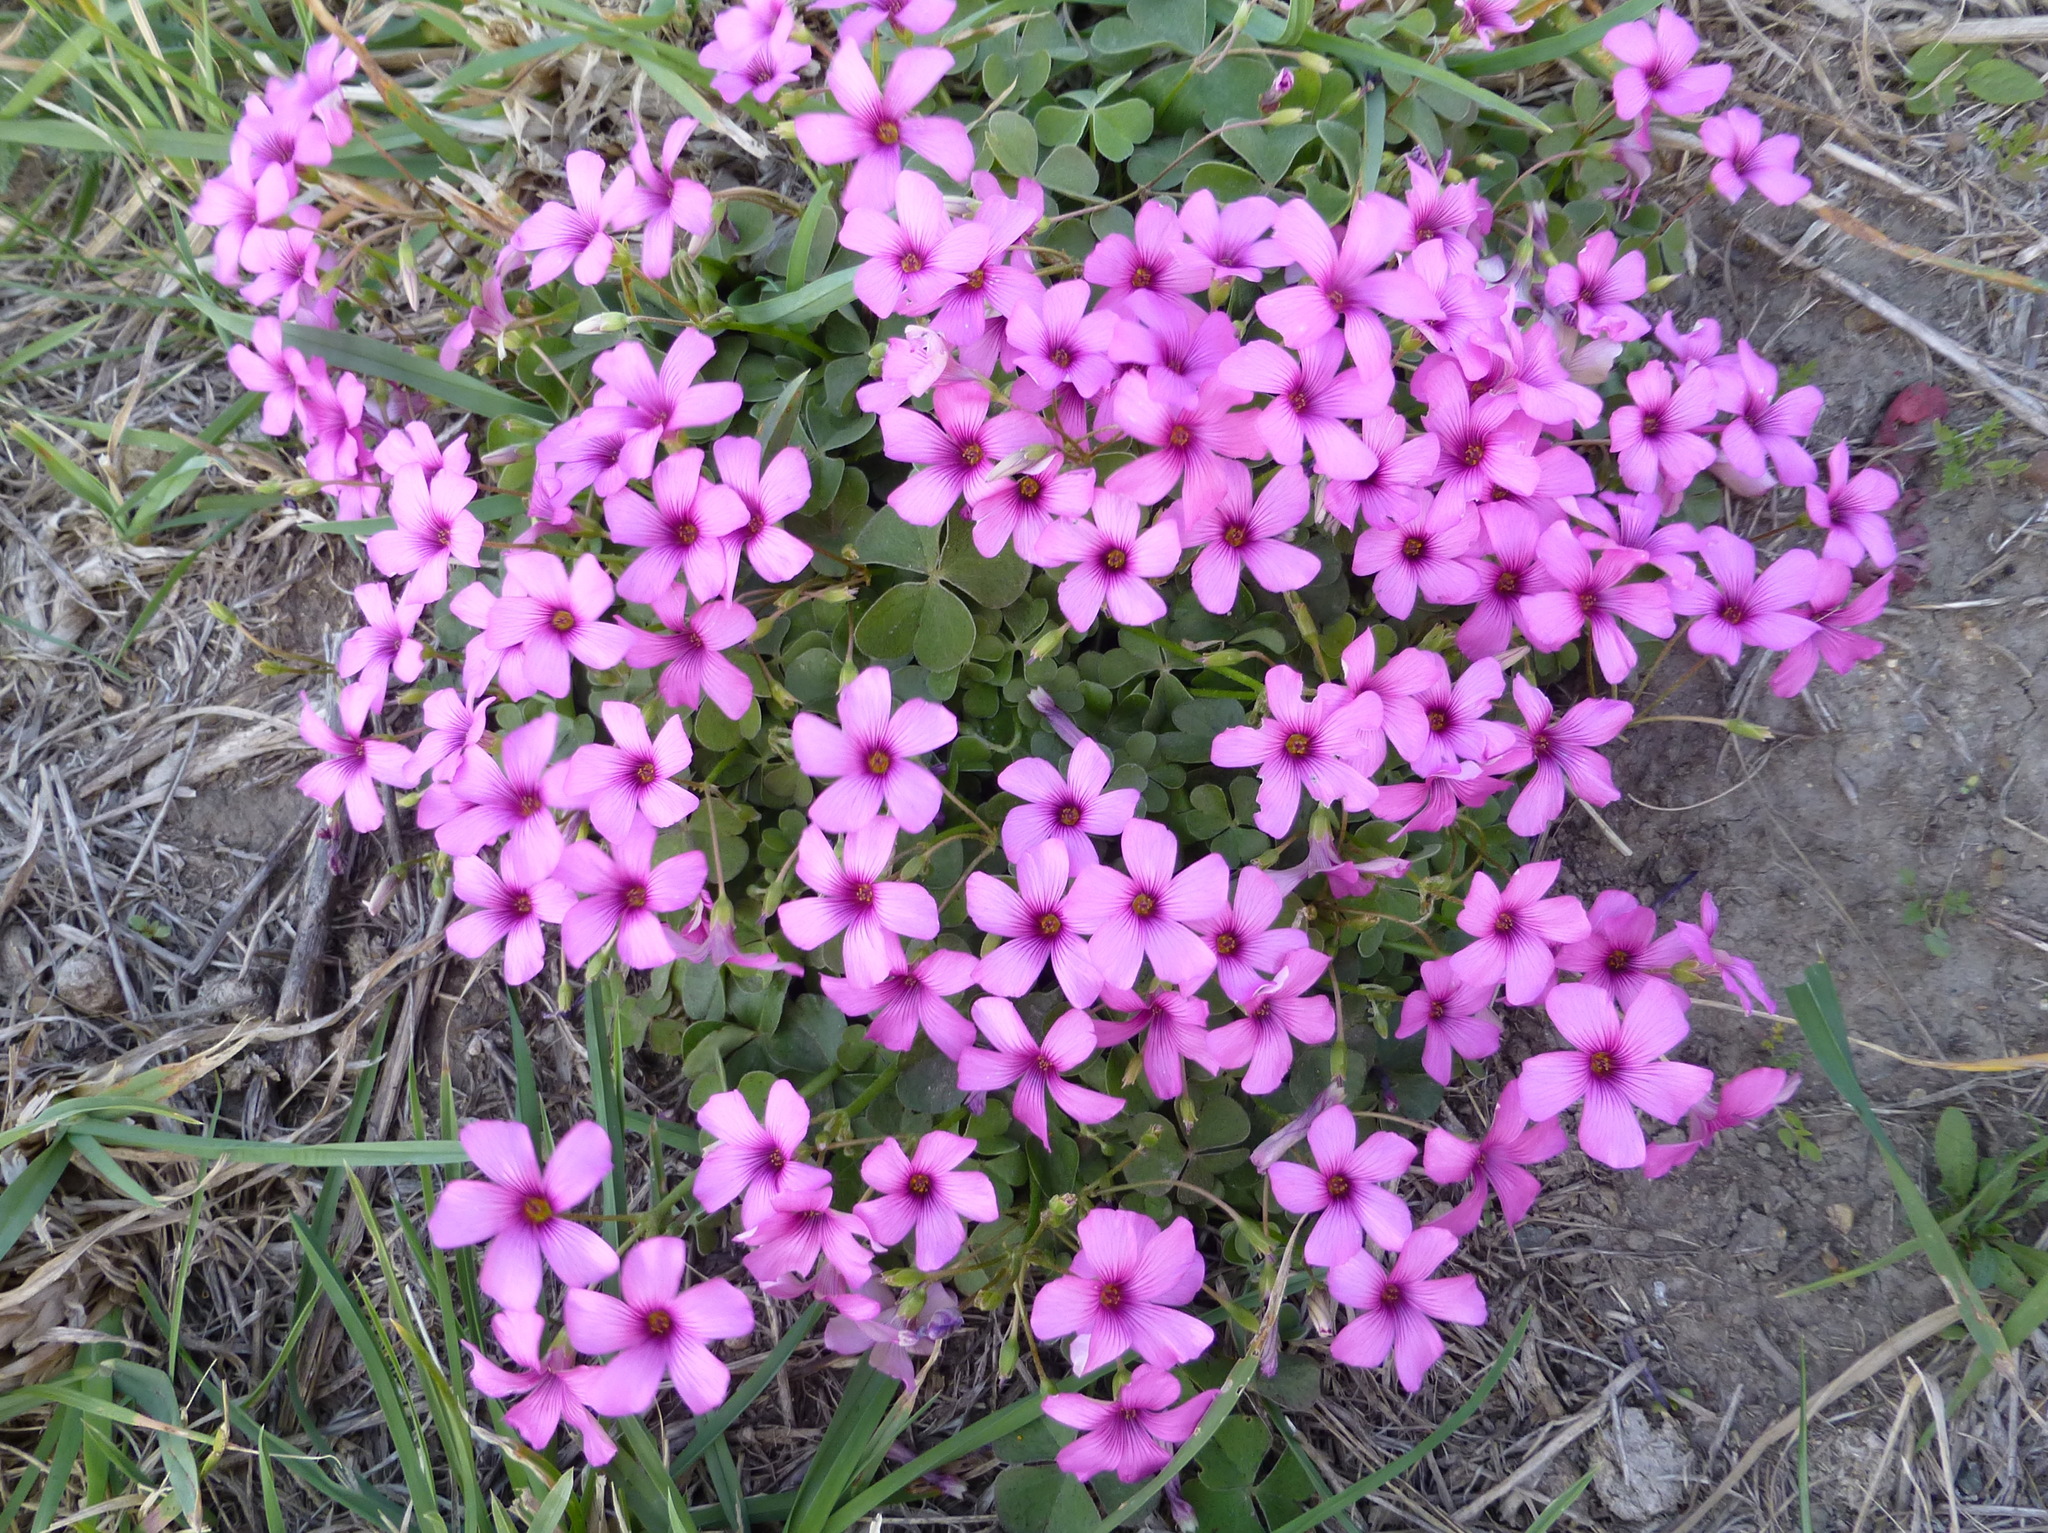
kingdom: Plantae
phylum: Tracheophyta
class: Magnoliopsida
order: Oxalidales
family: Oxalidaceae
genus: Oxalis
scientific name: Oxalis articulata
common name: Pink-sorrel
